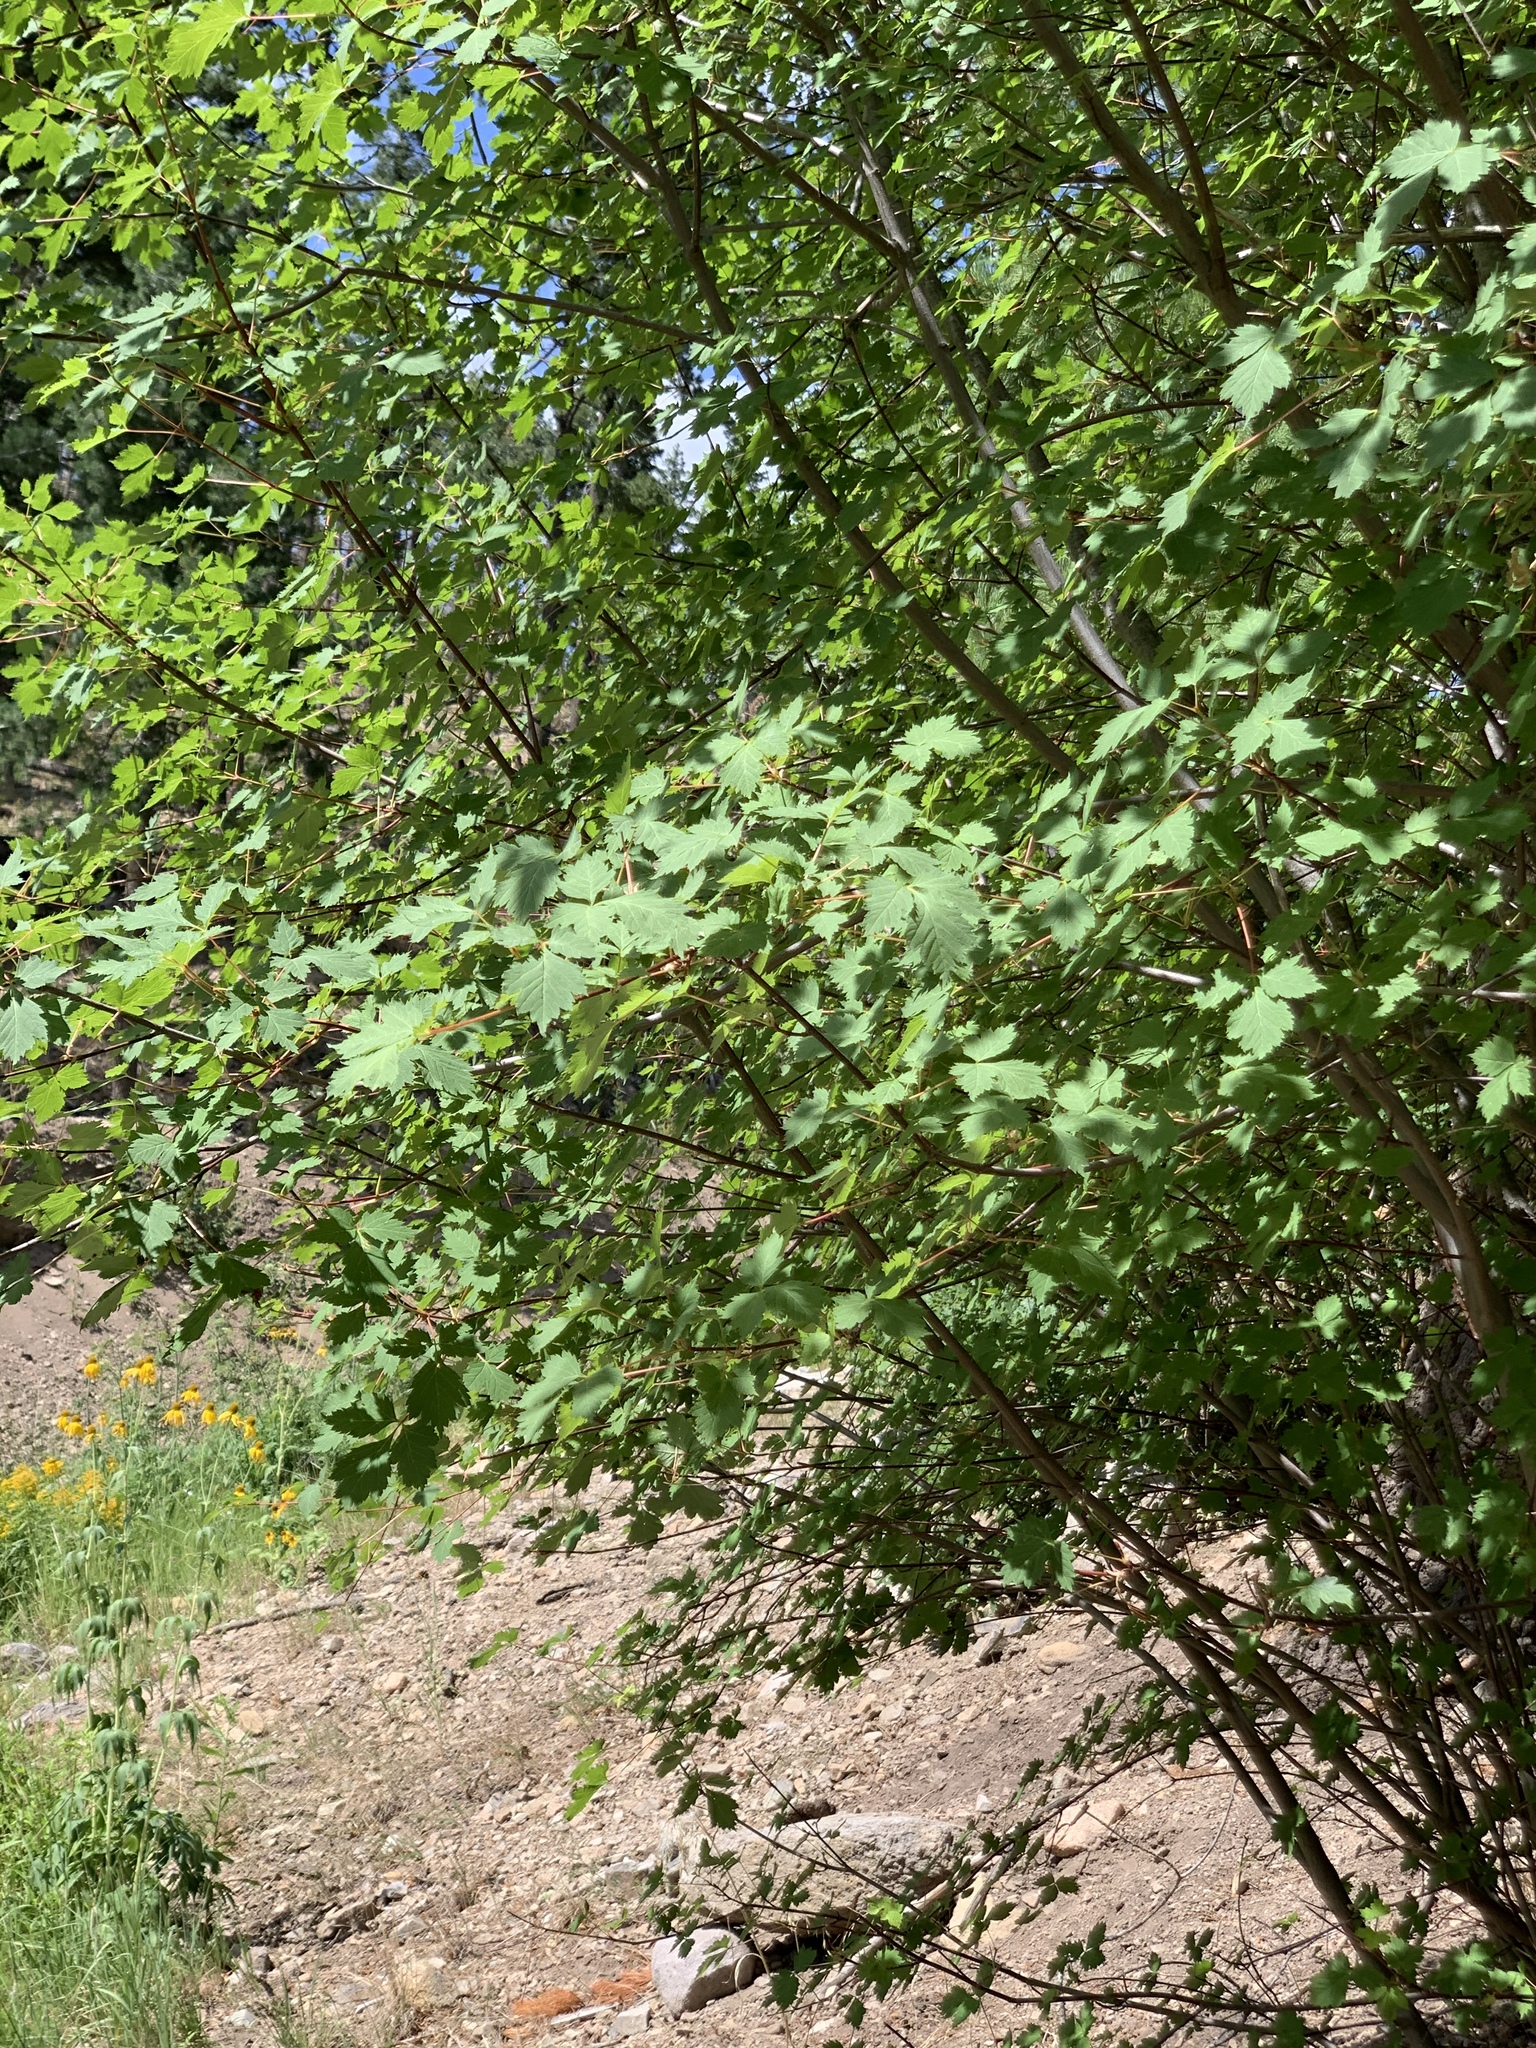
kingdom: Plantae
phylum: Tracheophyta
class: Magnoliopsida
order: Sapindales
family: Sapindaceae
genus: Acer
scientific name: Acer negundo
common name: Ashleaf maple
